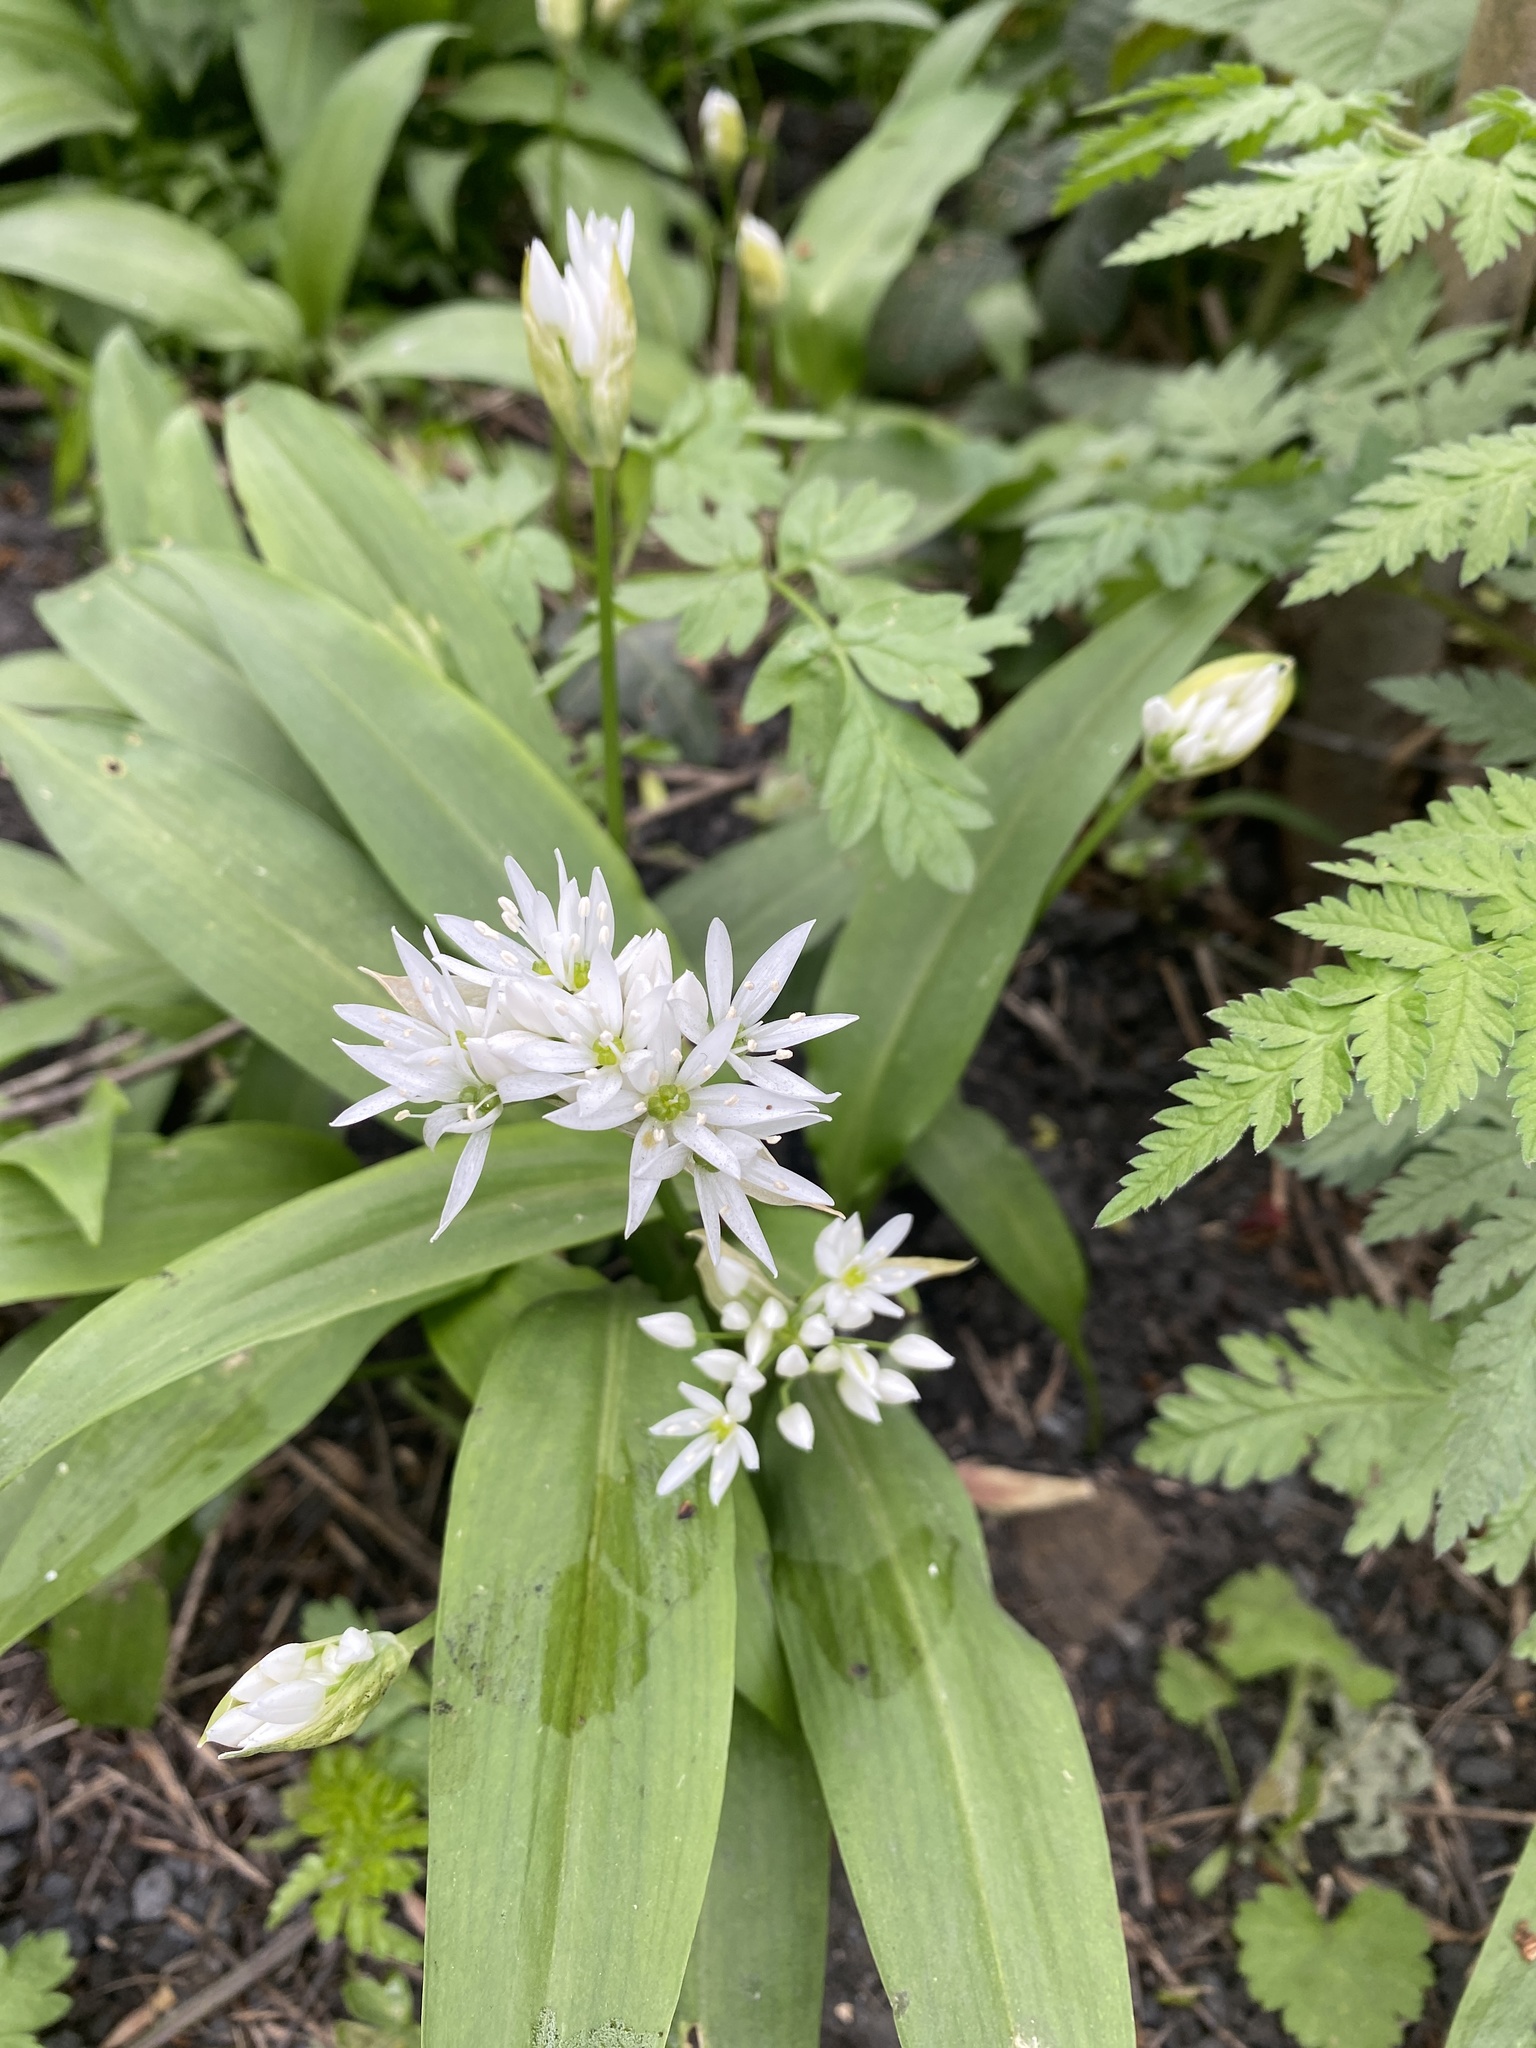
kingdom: Plantae
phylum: Tracheophyta
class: Liliopsida
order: Asparagales
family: Amaryllidaceae
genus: Allium
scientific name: Allium ursinum
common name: Ramsons
